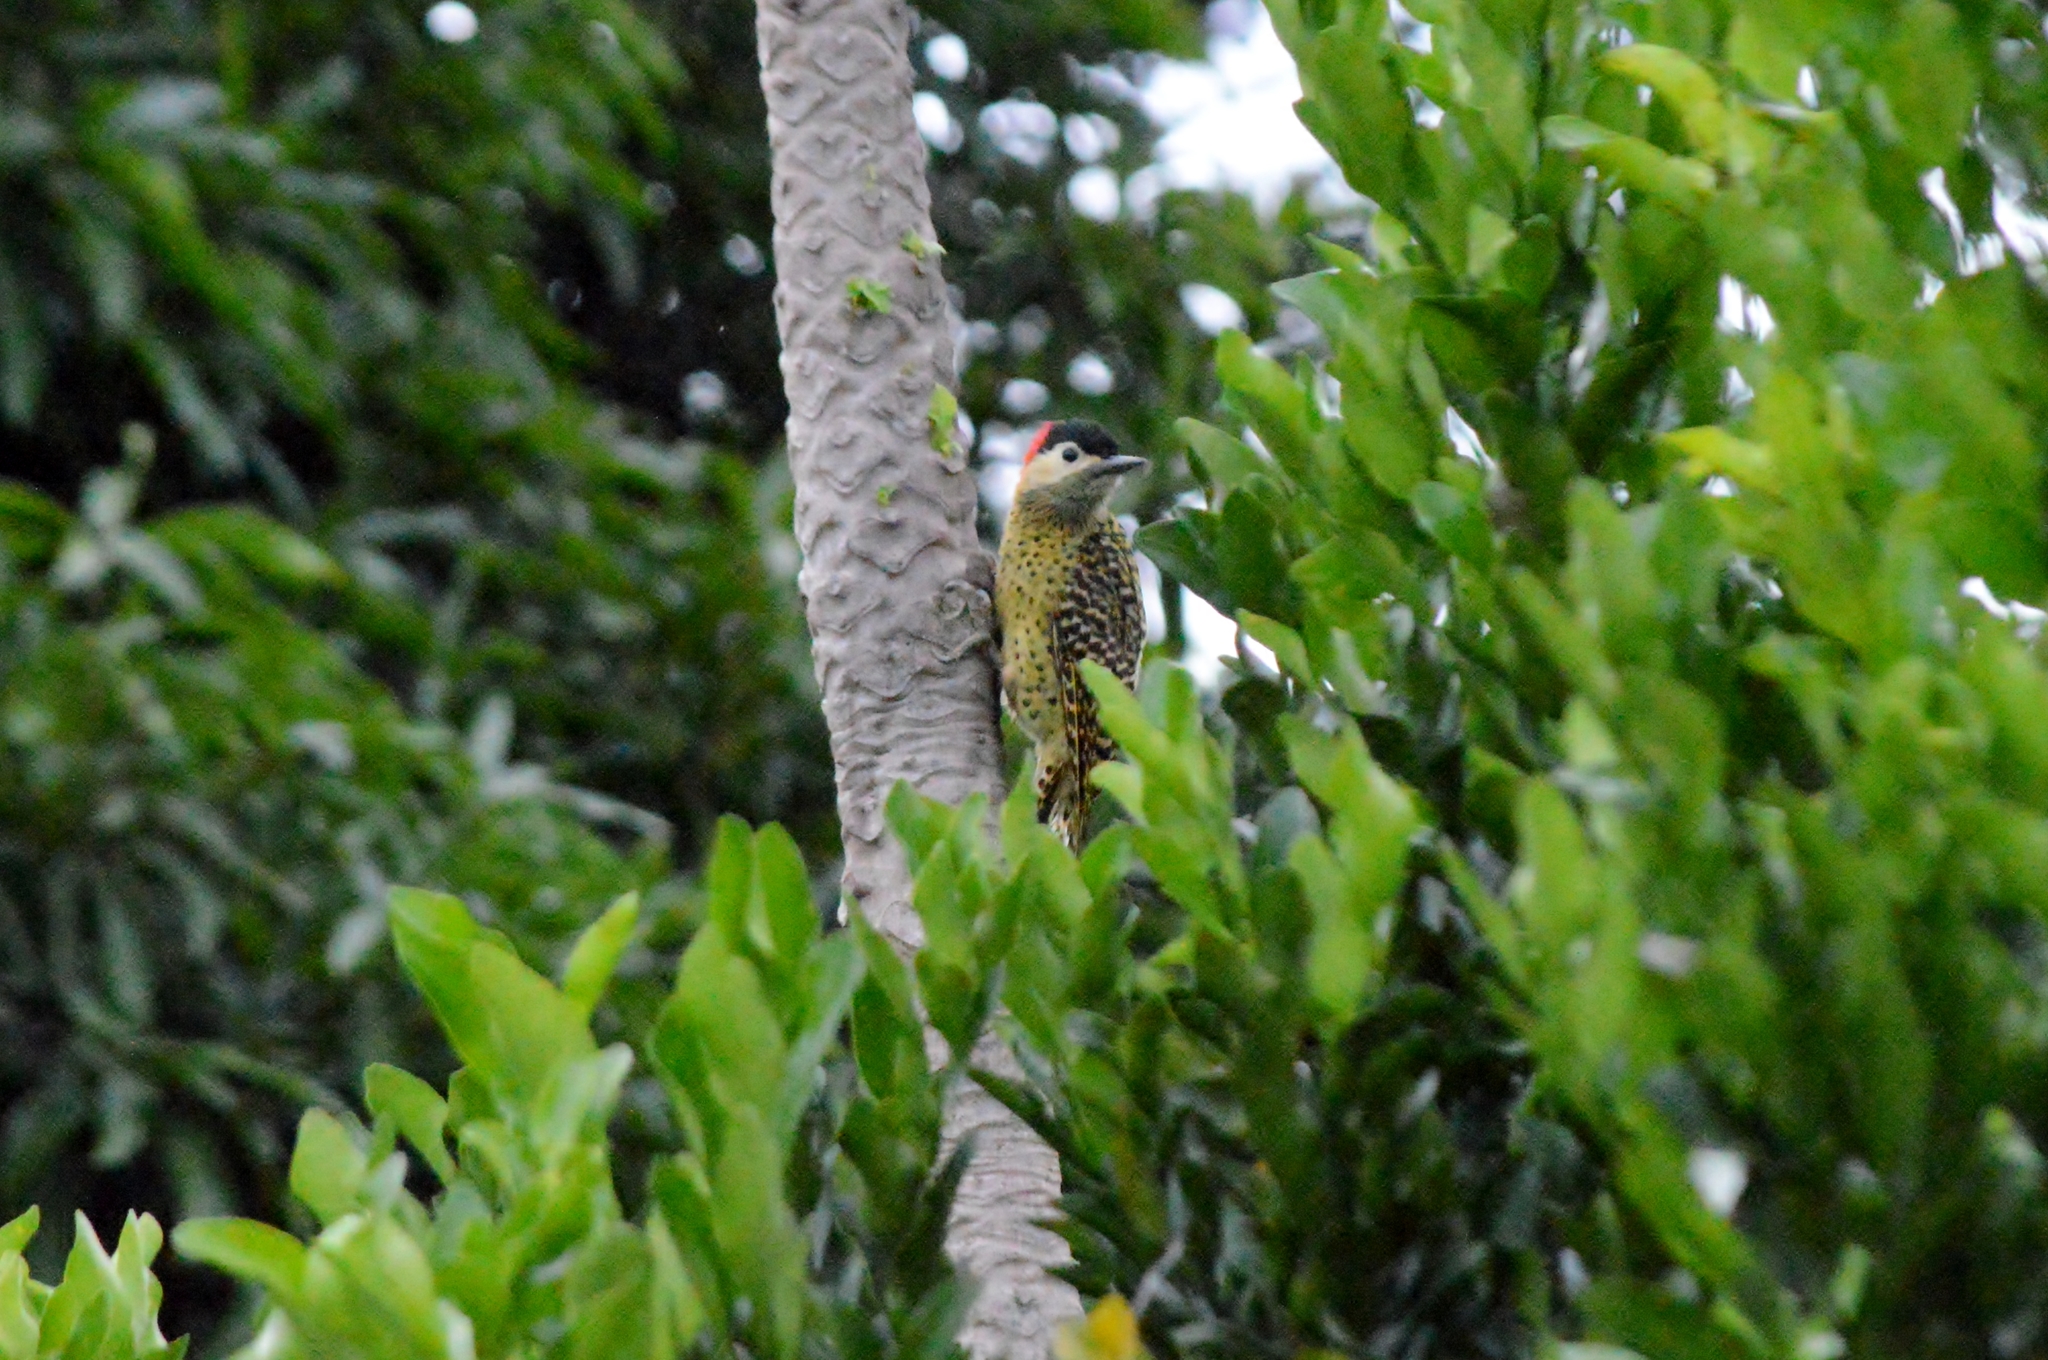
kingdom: Animalia
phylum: Chordata
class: Aves
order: Piciformes
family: Picidae
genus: Colaptes
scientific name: Colaptes melanochloros
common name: Green-barred woodpecker
